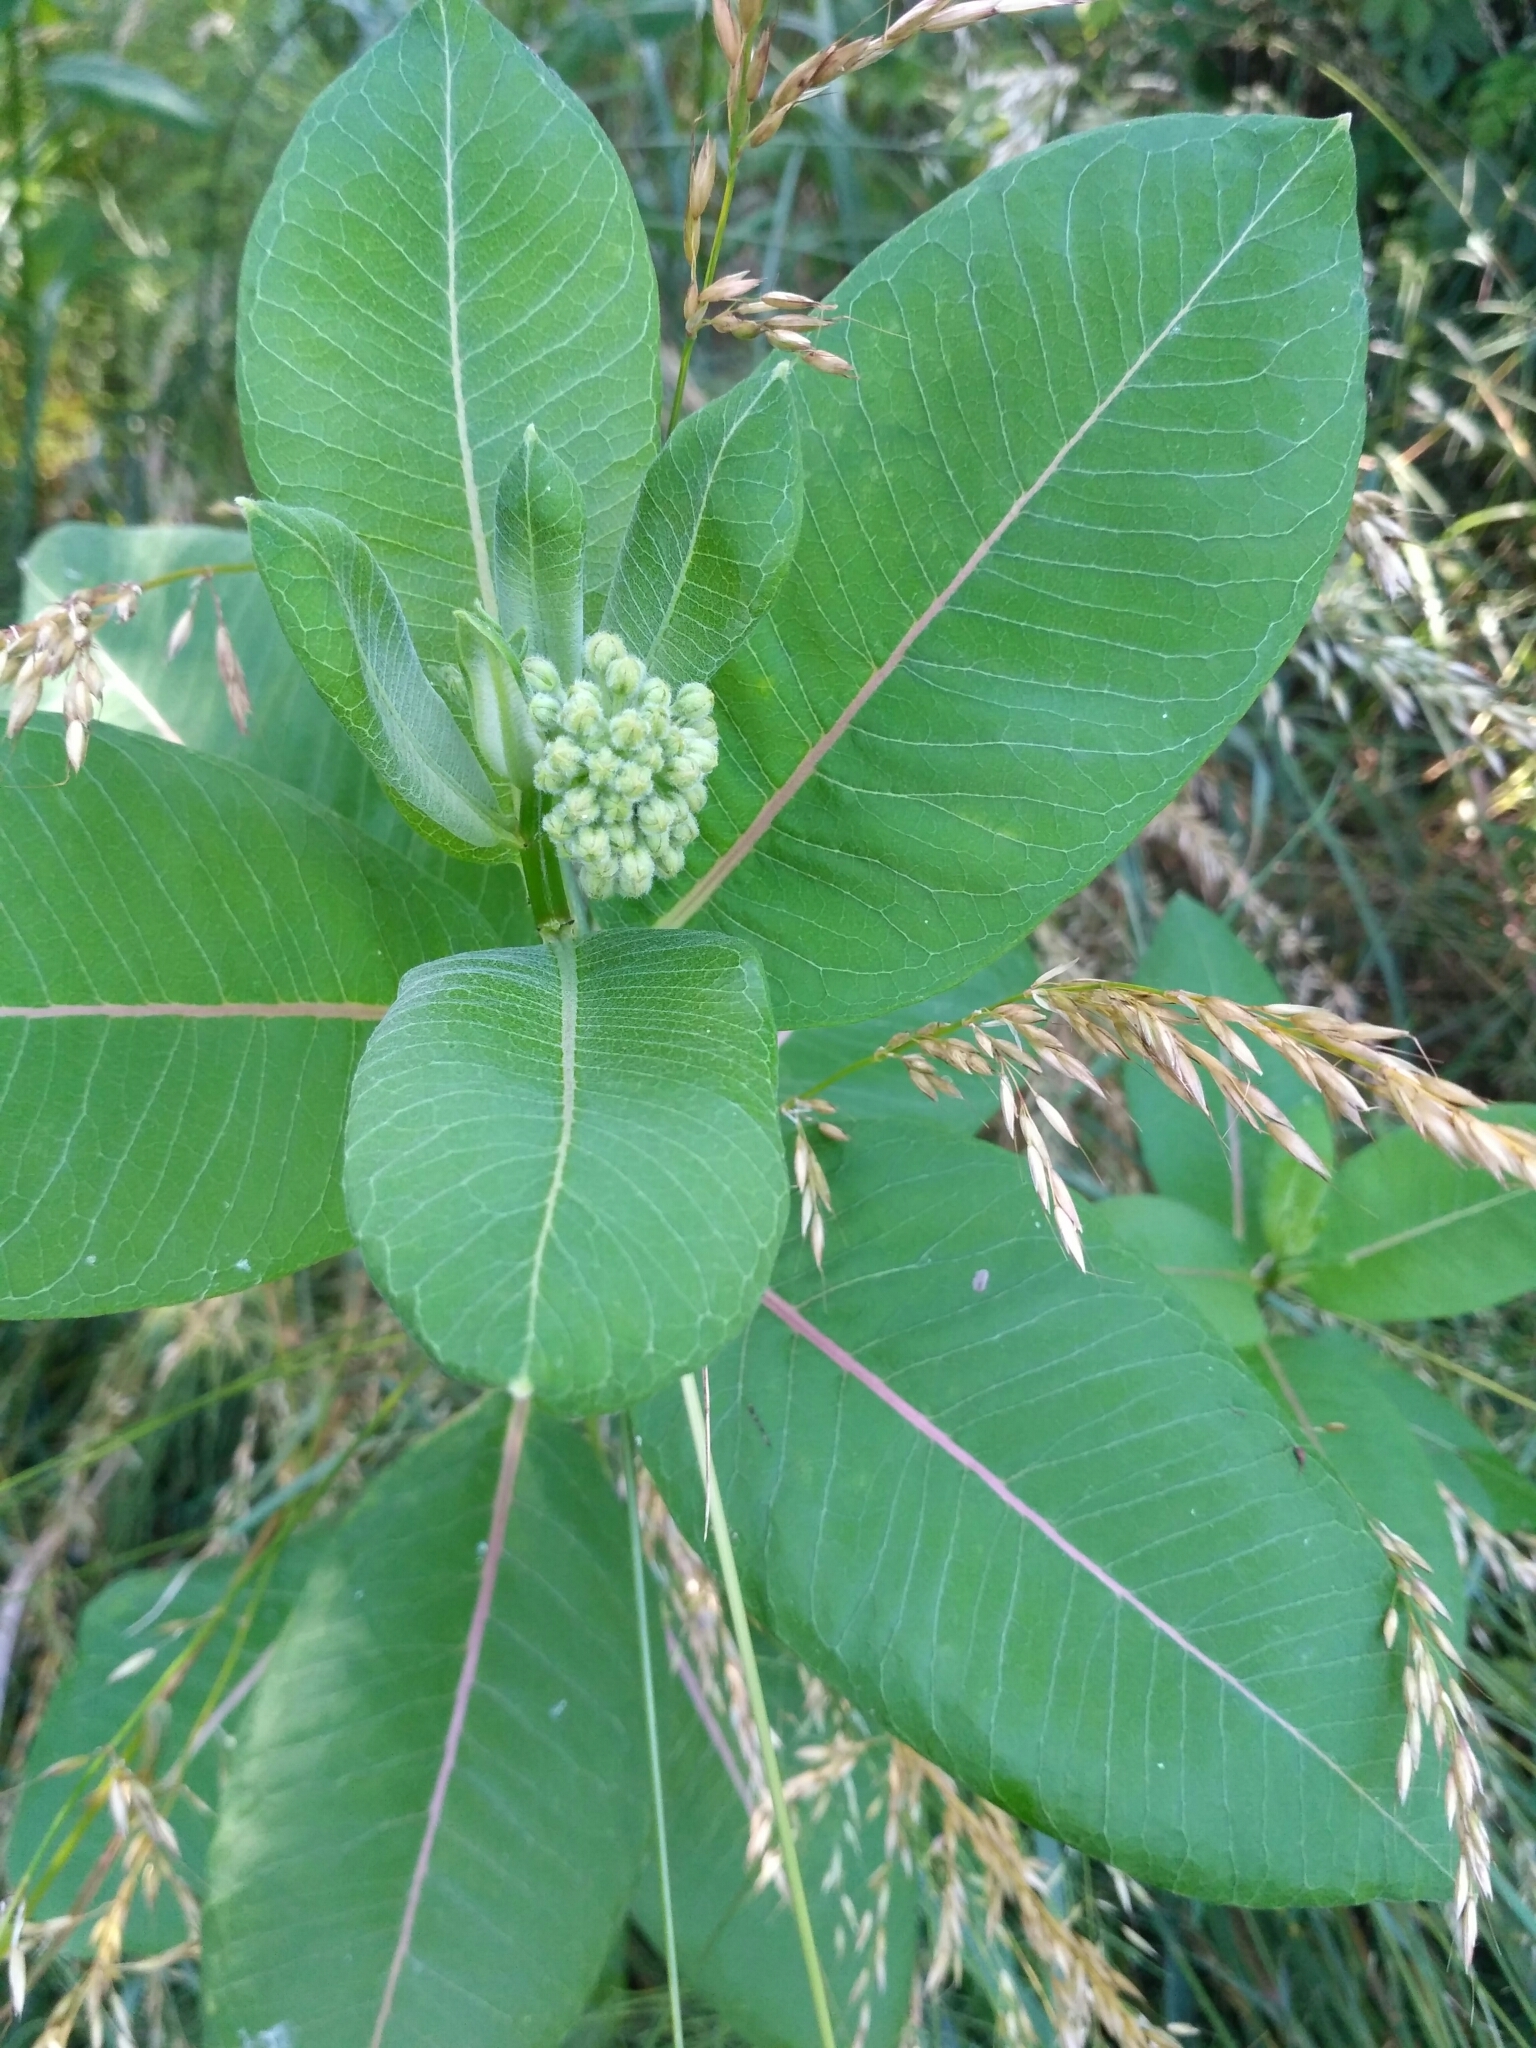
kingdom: Plantae
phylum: Tracheophyta
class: Magnoliopsida
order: Gentianales
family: Apocynaceae
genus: Asclepias
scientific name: Asclepias syriaca
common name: Common milkweed
